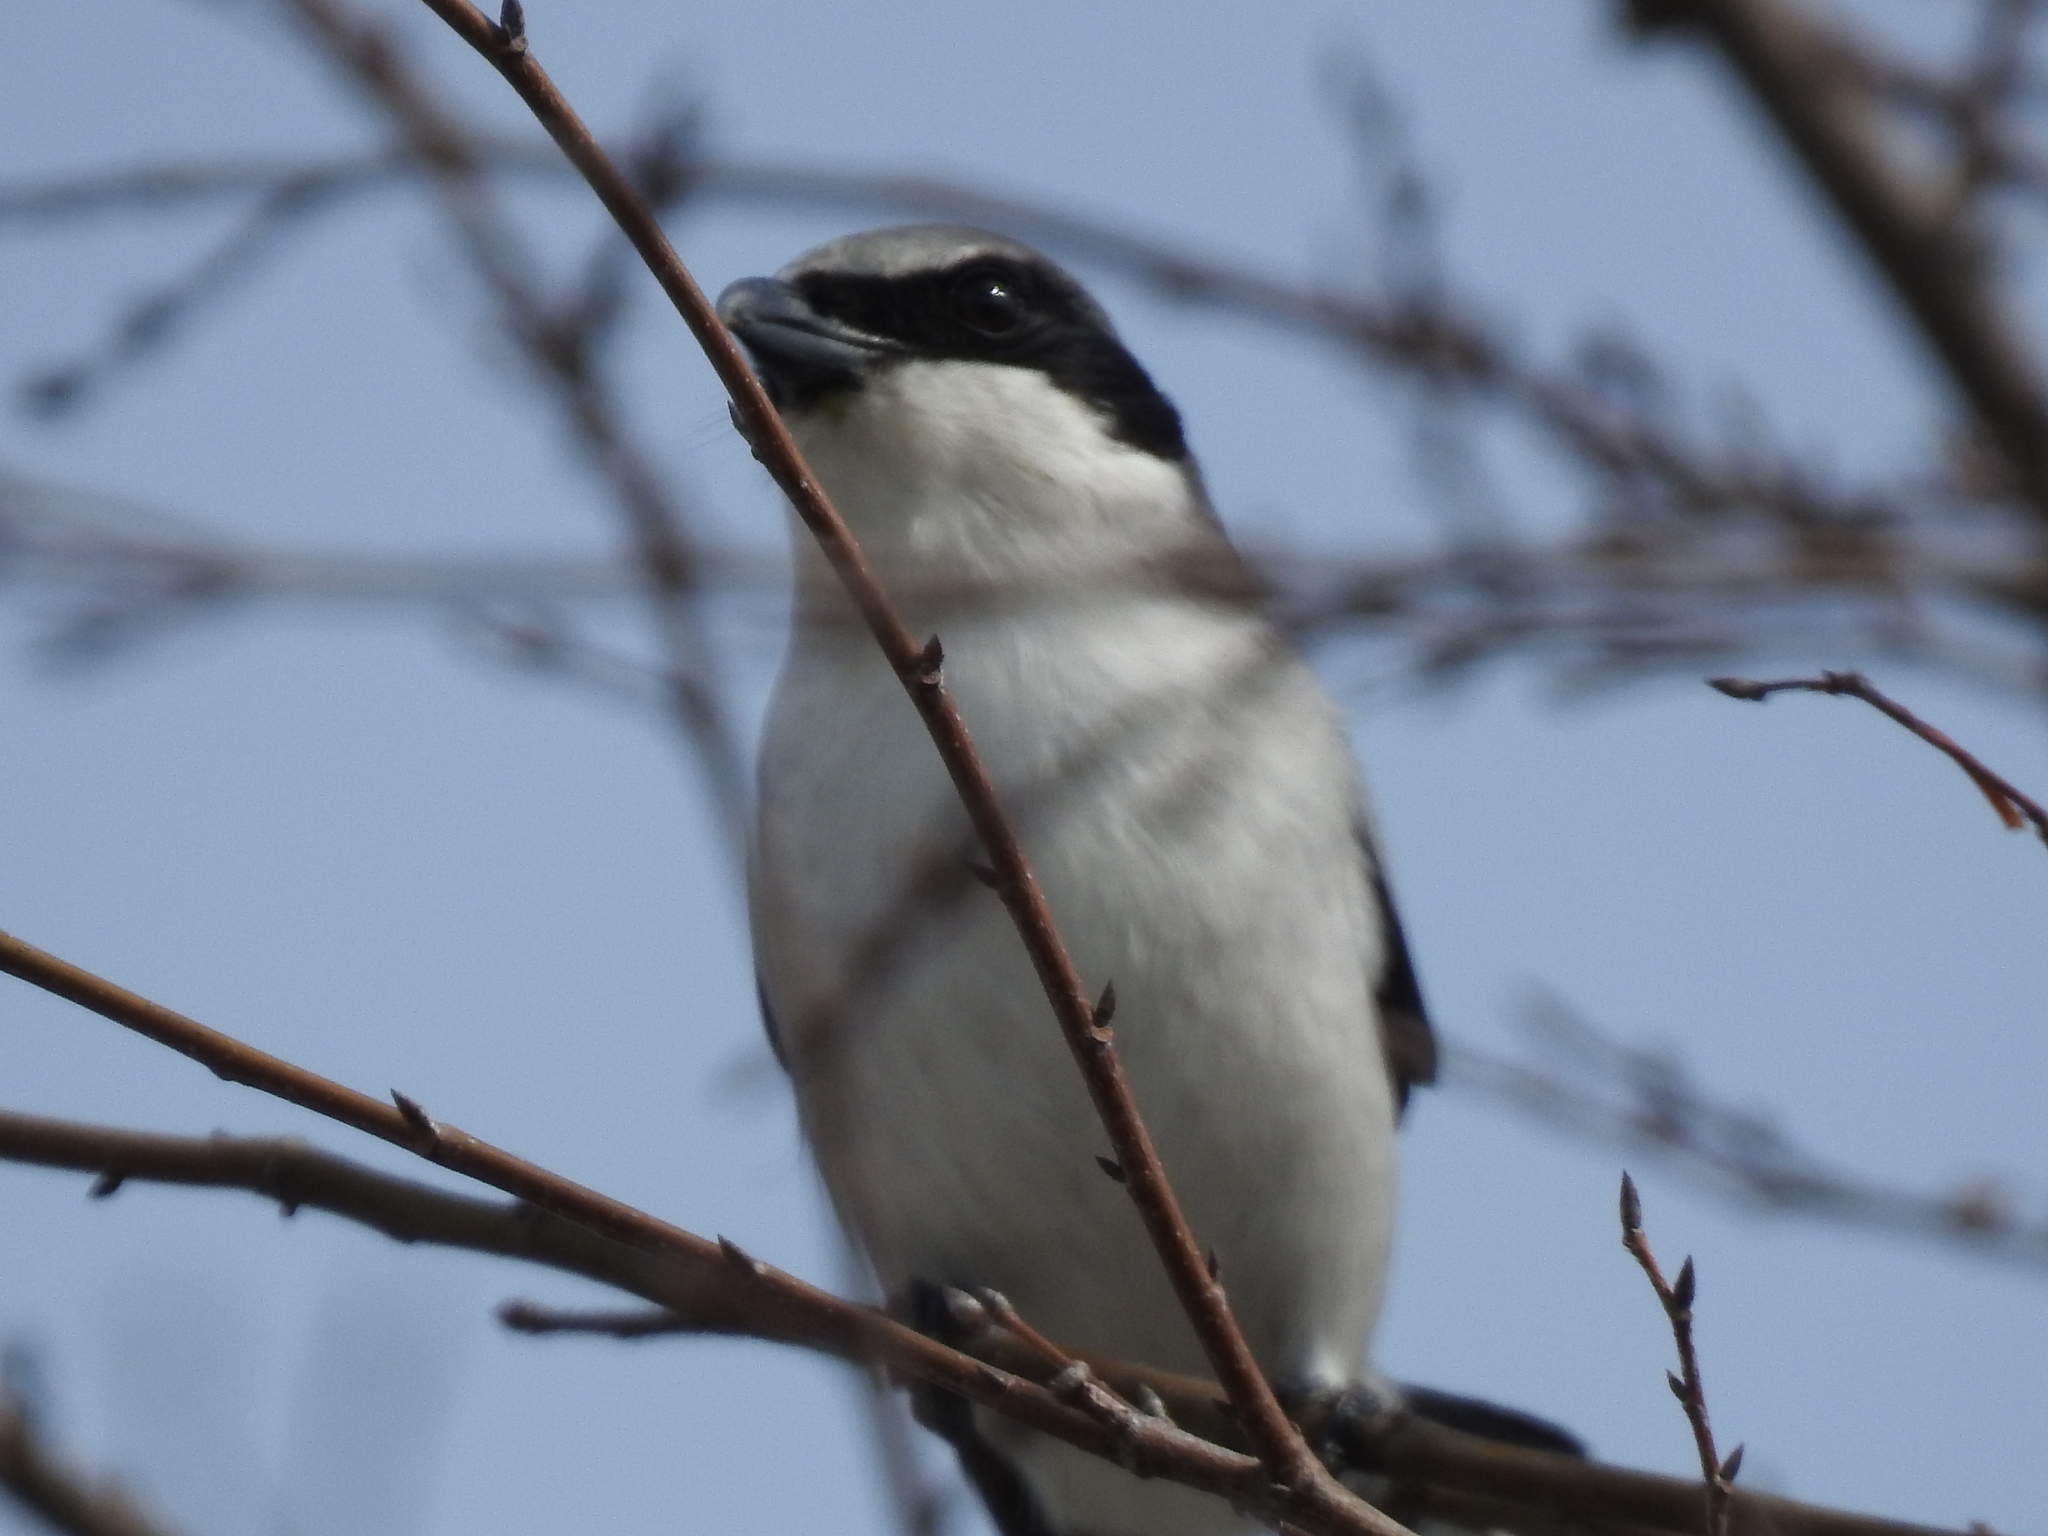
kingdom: Animalia
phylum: Chordata
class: Aves
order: Passeriformes
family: Laniidae
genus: Lanius
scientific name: Lanius ludovicianus
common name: Loggerhead shrike
